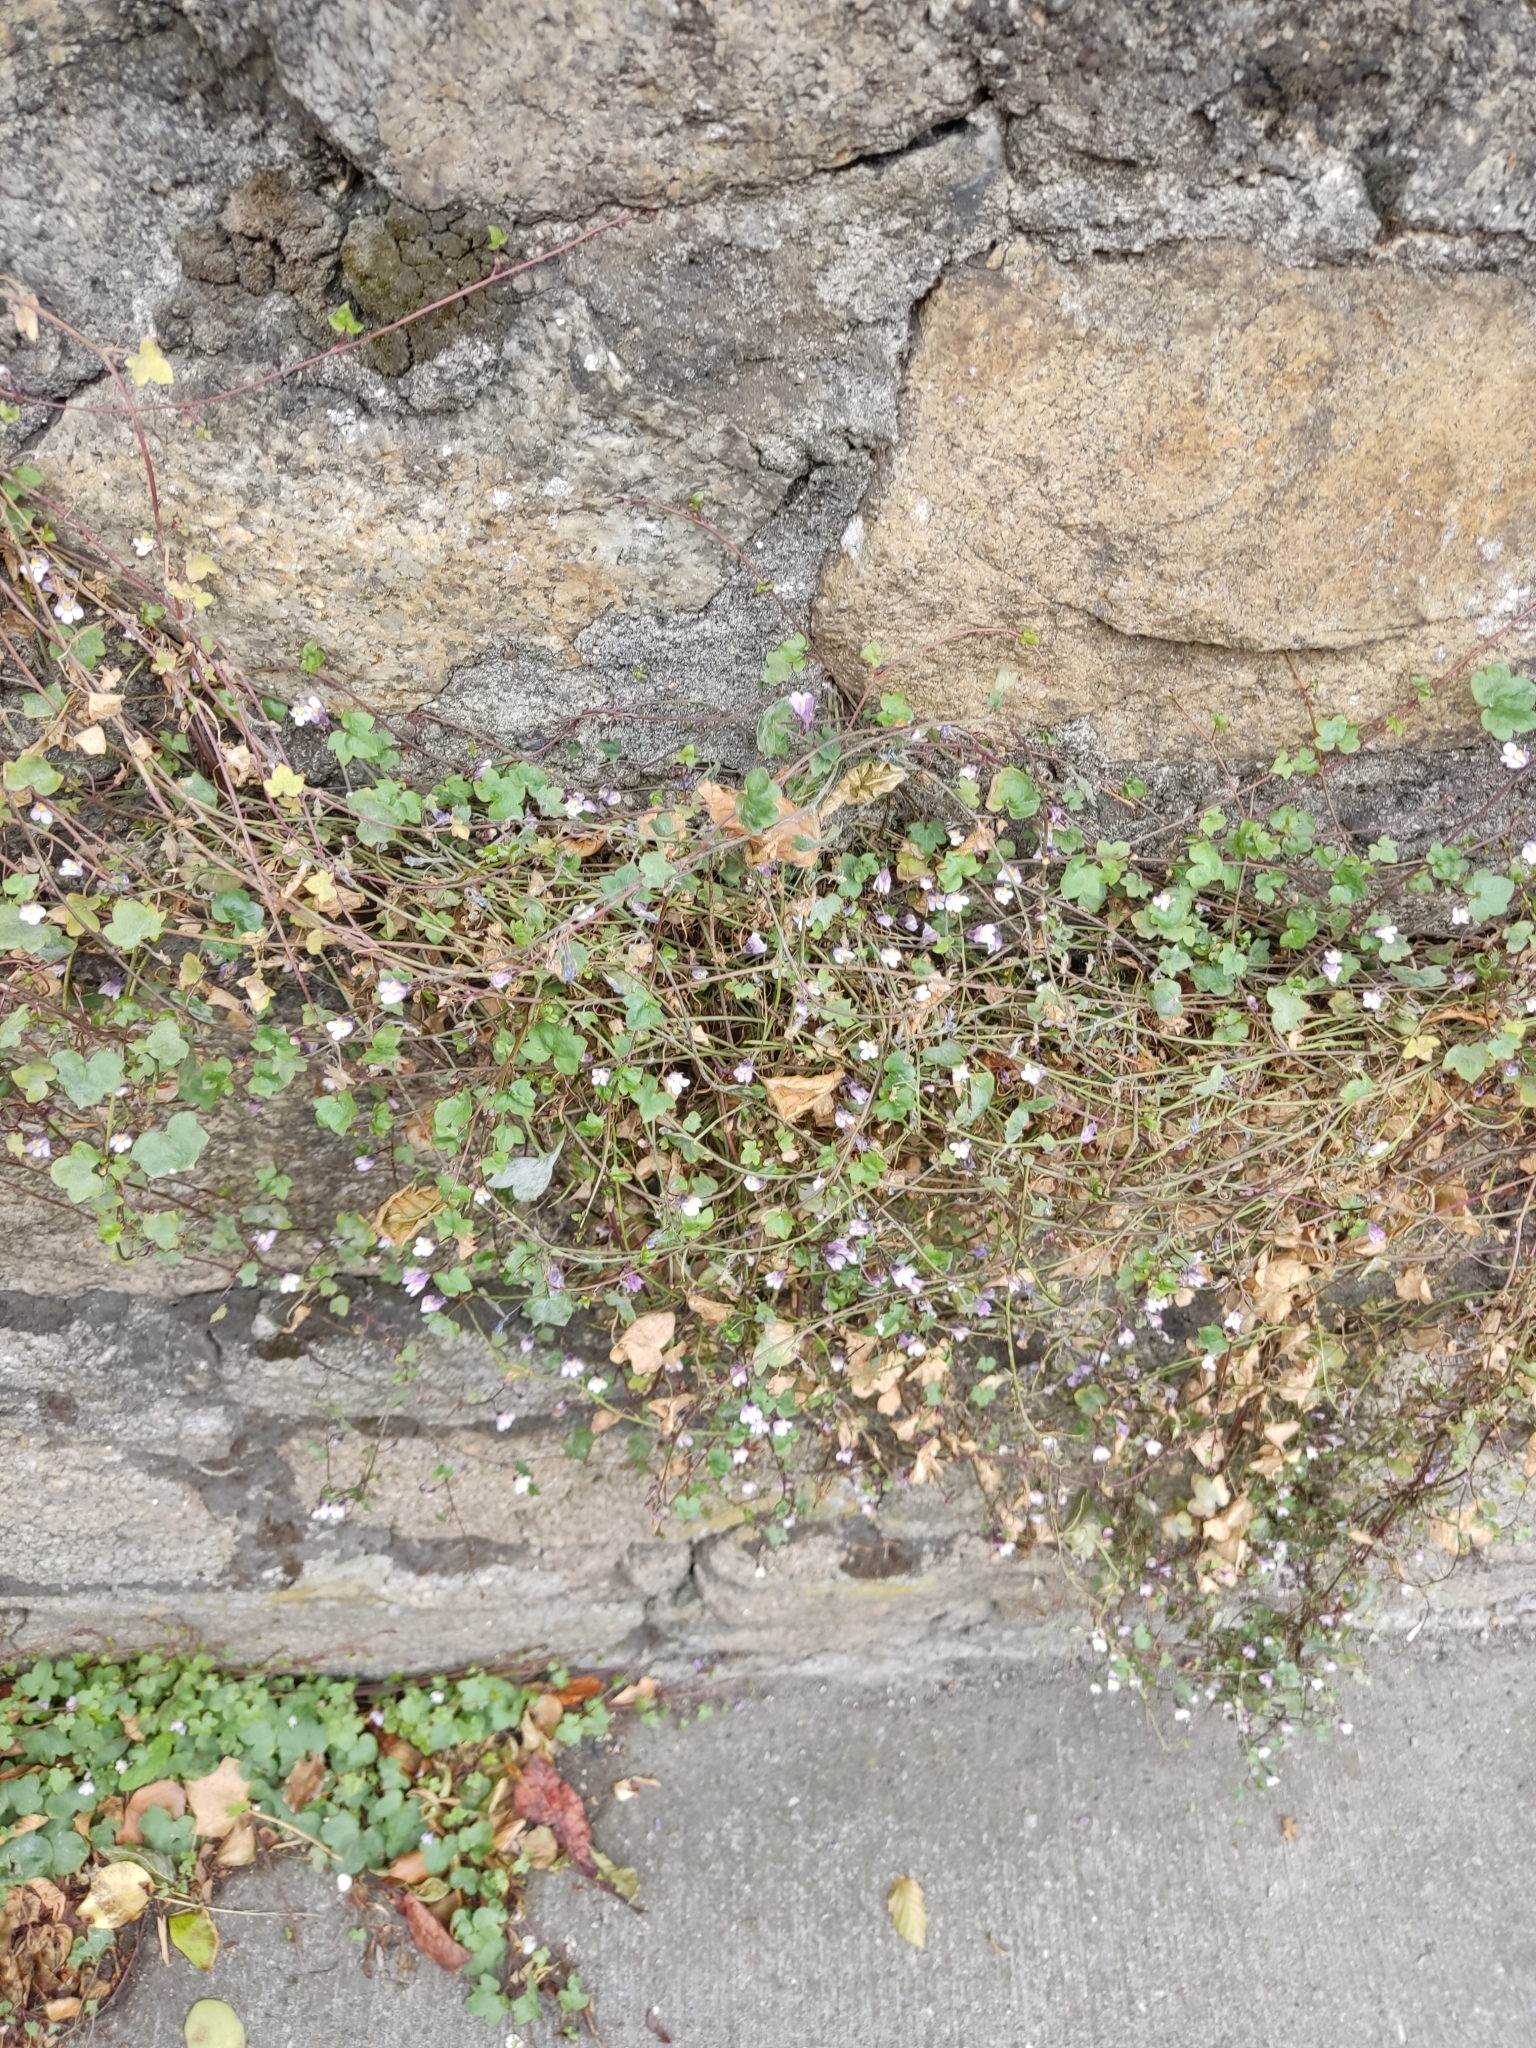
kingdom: Plantae
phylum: Tracheophyta
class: Magnoliopsida
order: Lamiales
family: Plantaginaceae
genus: Cymbalaria
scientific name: Cymbalaria muralis
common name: Ivy-leaved toadflax
